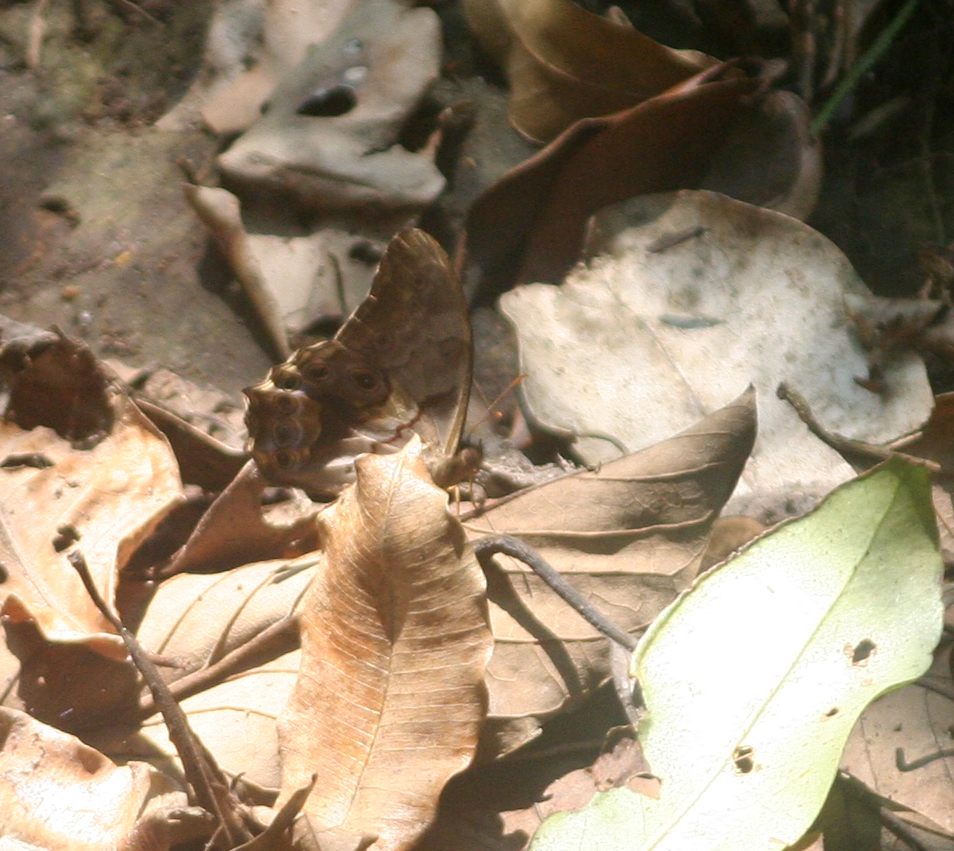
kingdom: Animalia
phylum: Arthropoda
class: Insecta
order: Lepidoptera
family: Nymphalidae
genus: Lethe
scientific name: Lethe chandica
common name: Angled red forester
